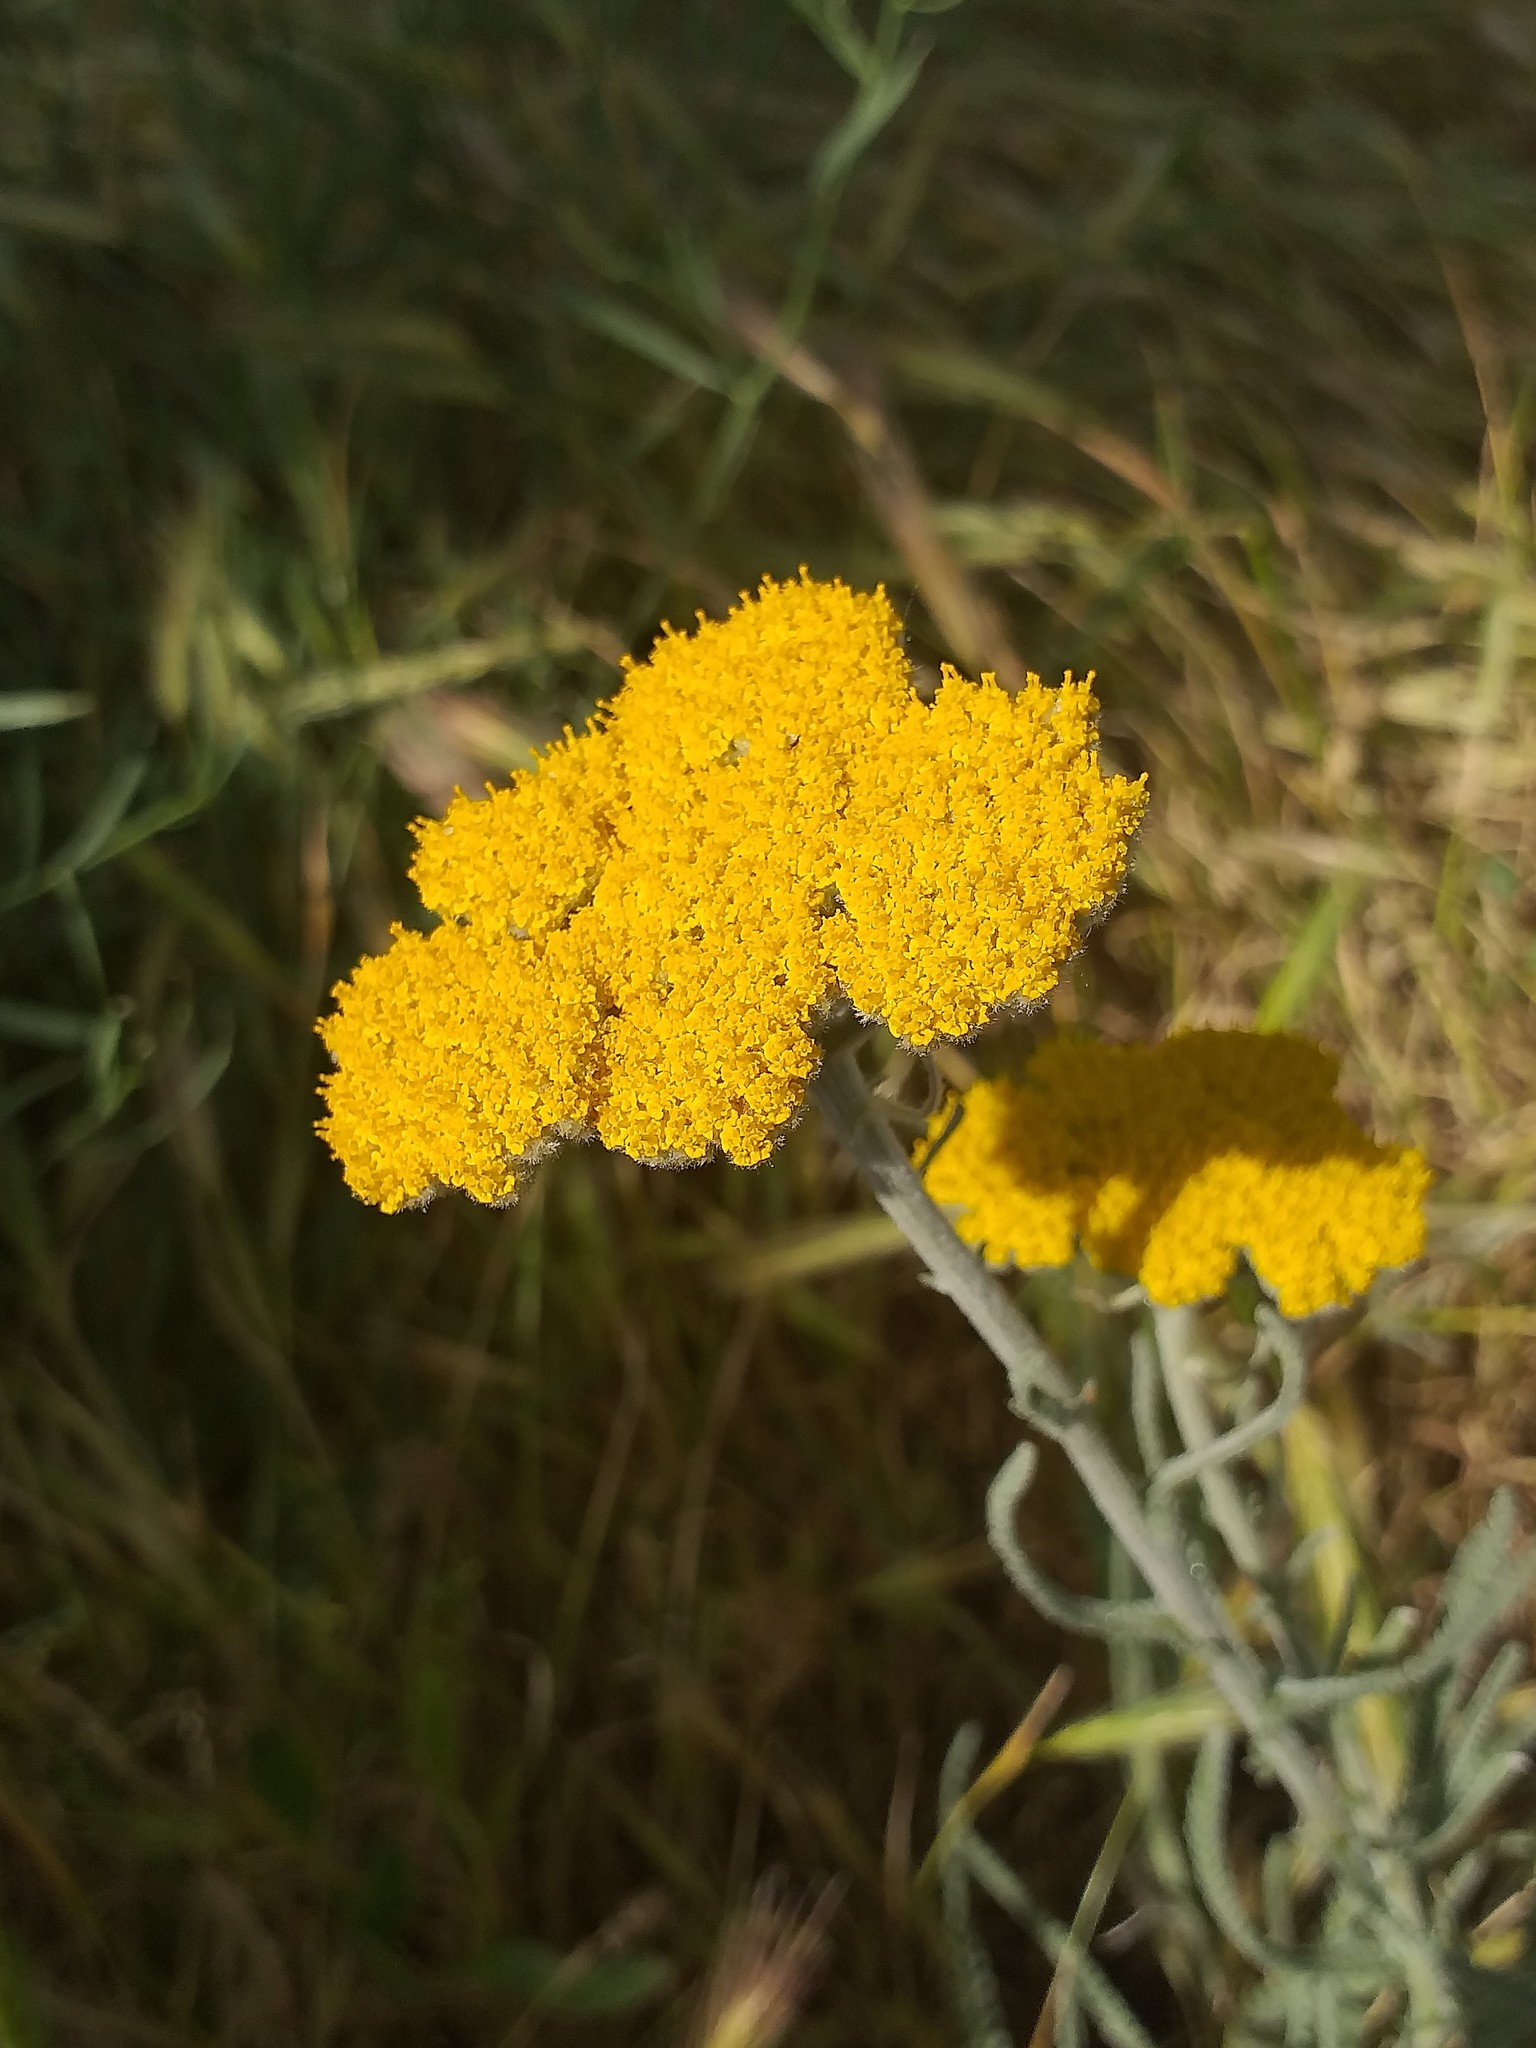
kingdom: Plantae
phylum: Tracheophyta
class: Magnoliopsida
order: Asterales
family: Asteraceae
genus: Achillea
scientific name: Achillea coarctata
